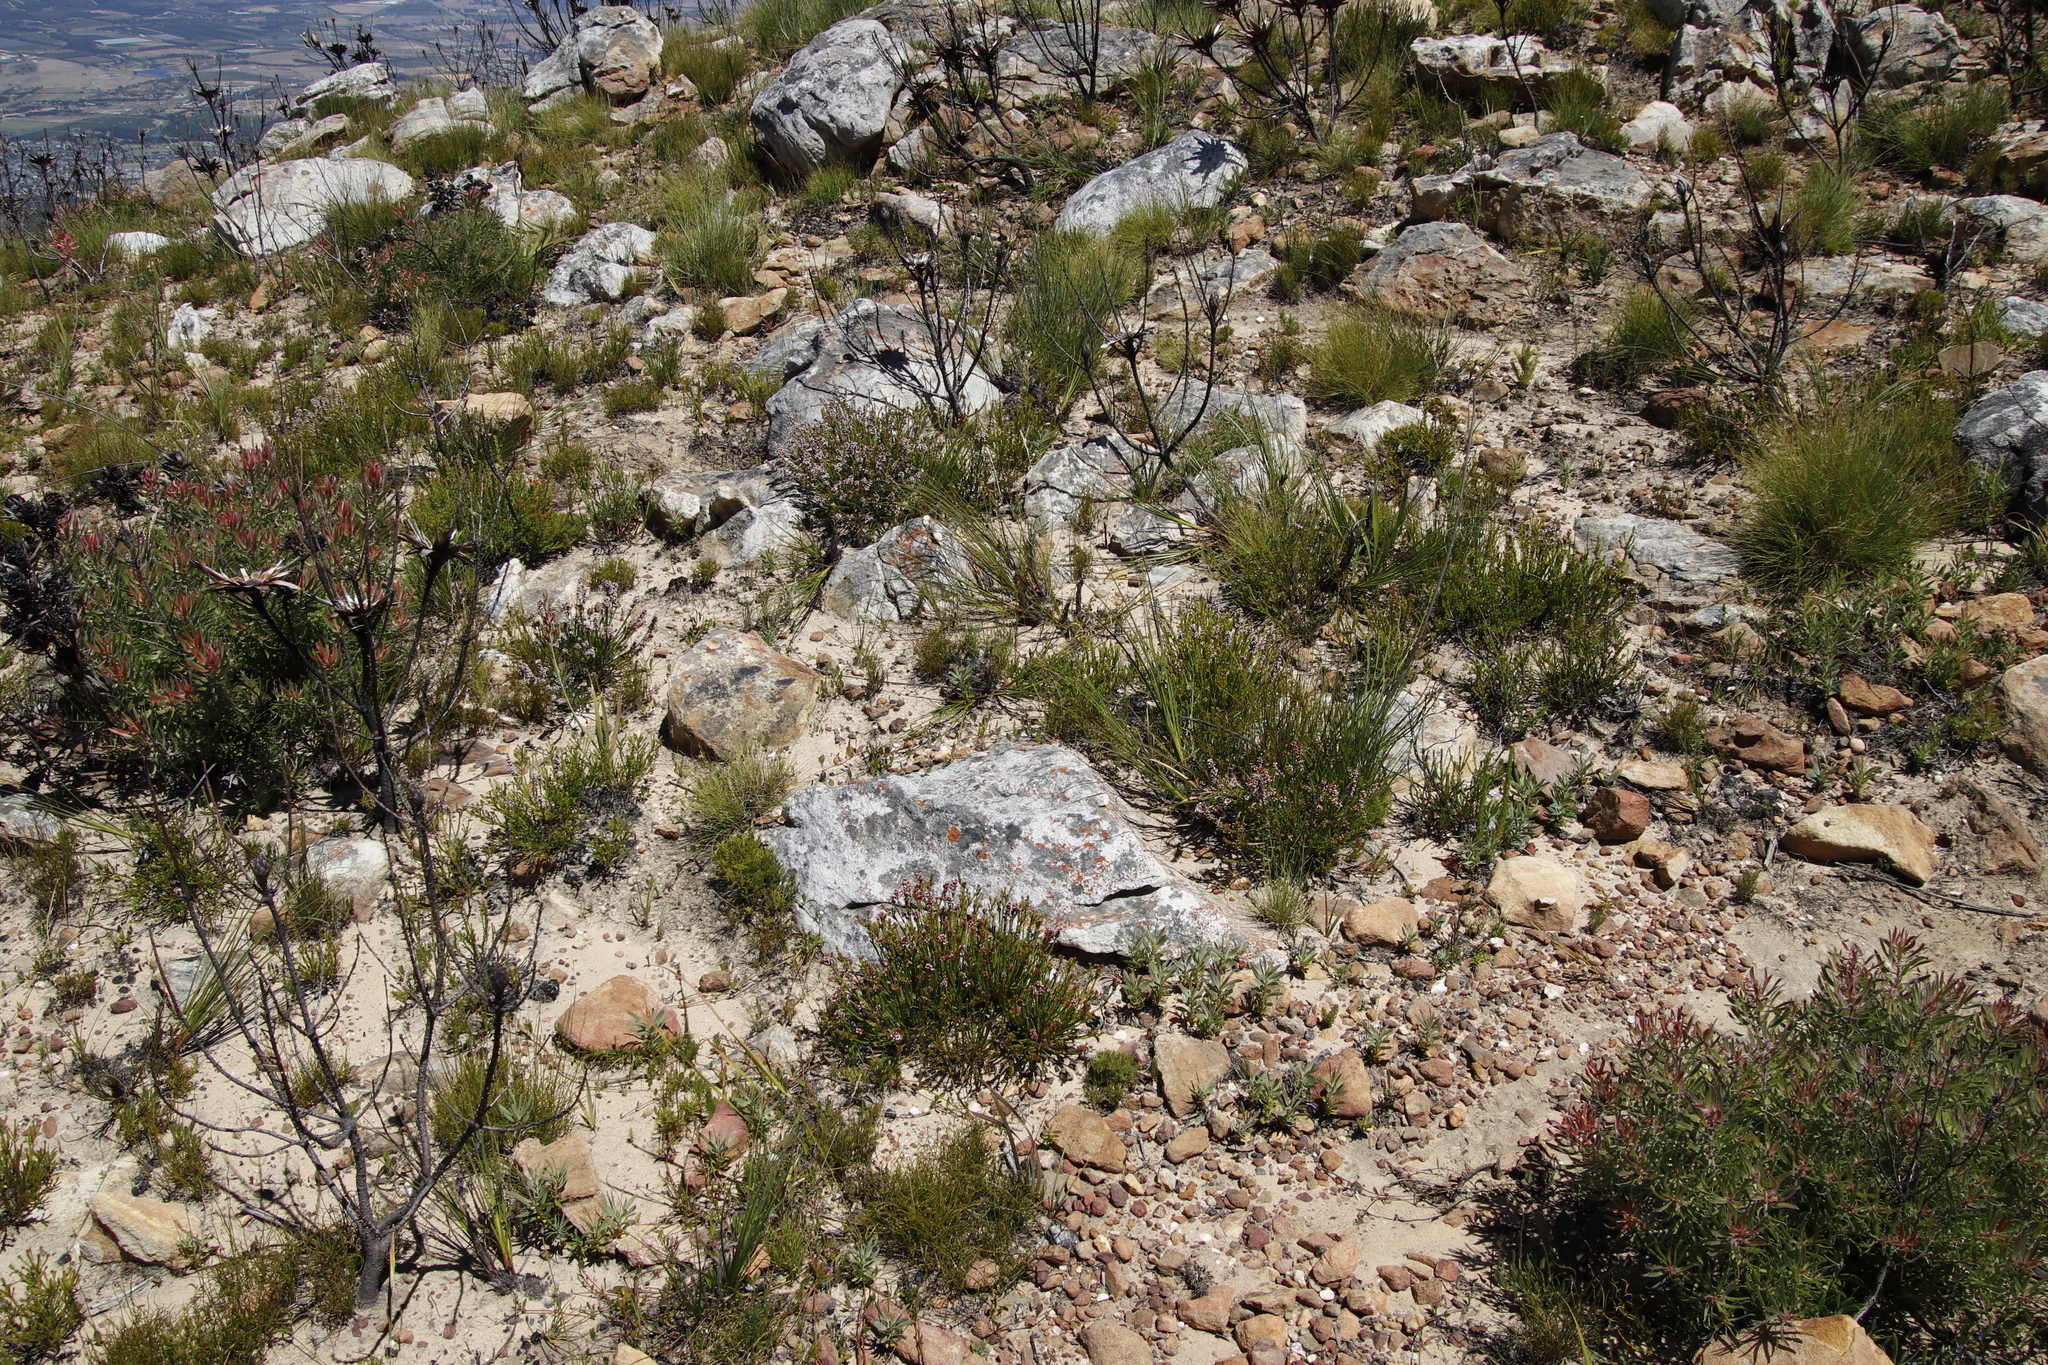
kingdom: Plantae
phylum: Tracheophyta
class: Magnoliopsida
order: Ericales
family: Ericaceae
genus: Erica
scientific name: Erica articularis
